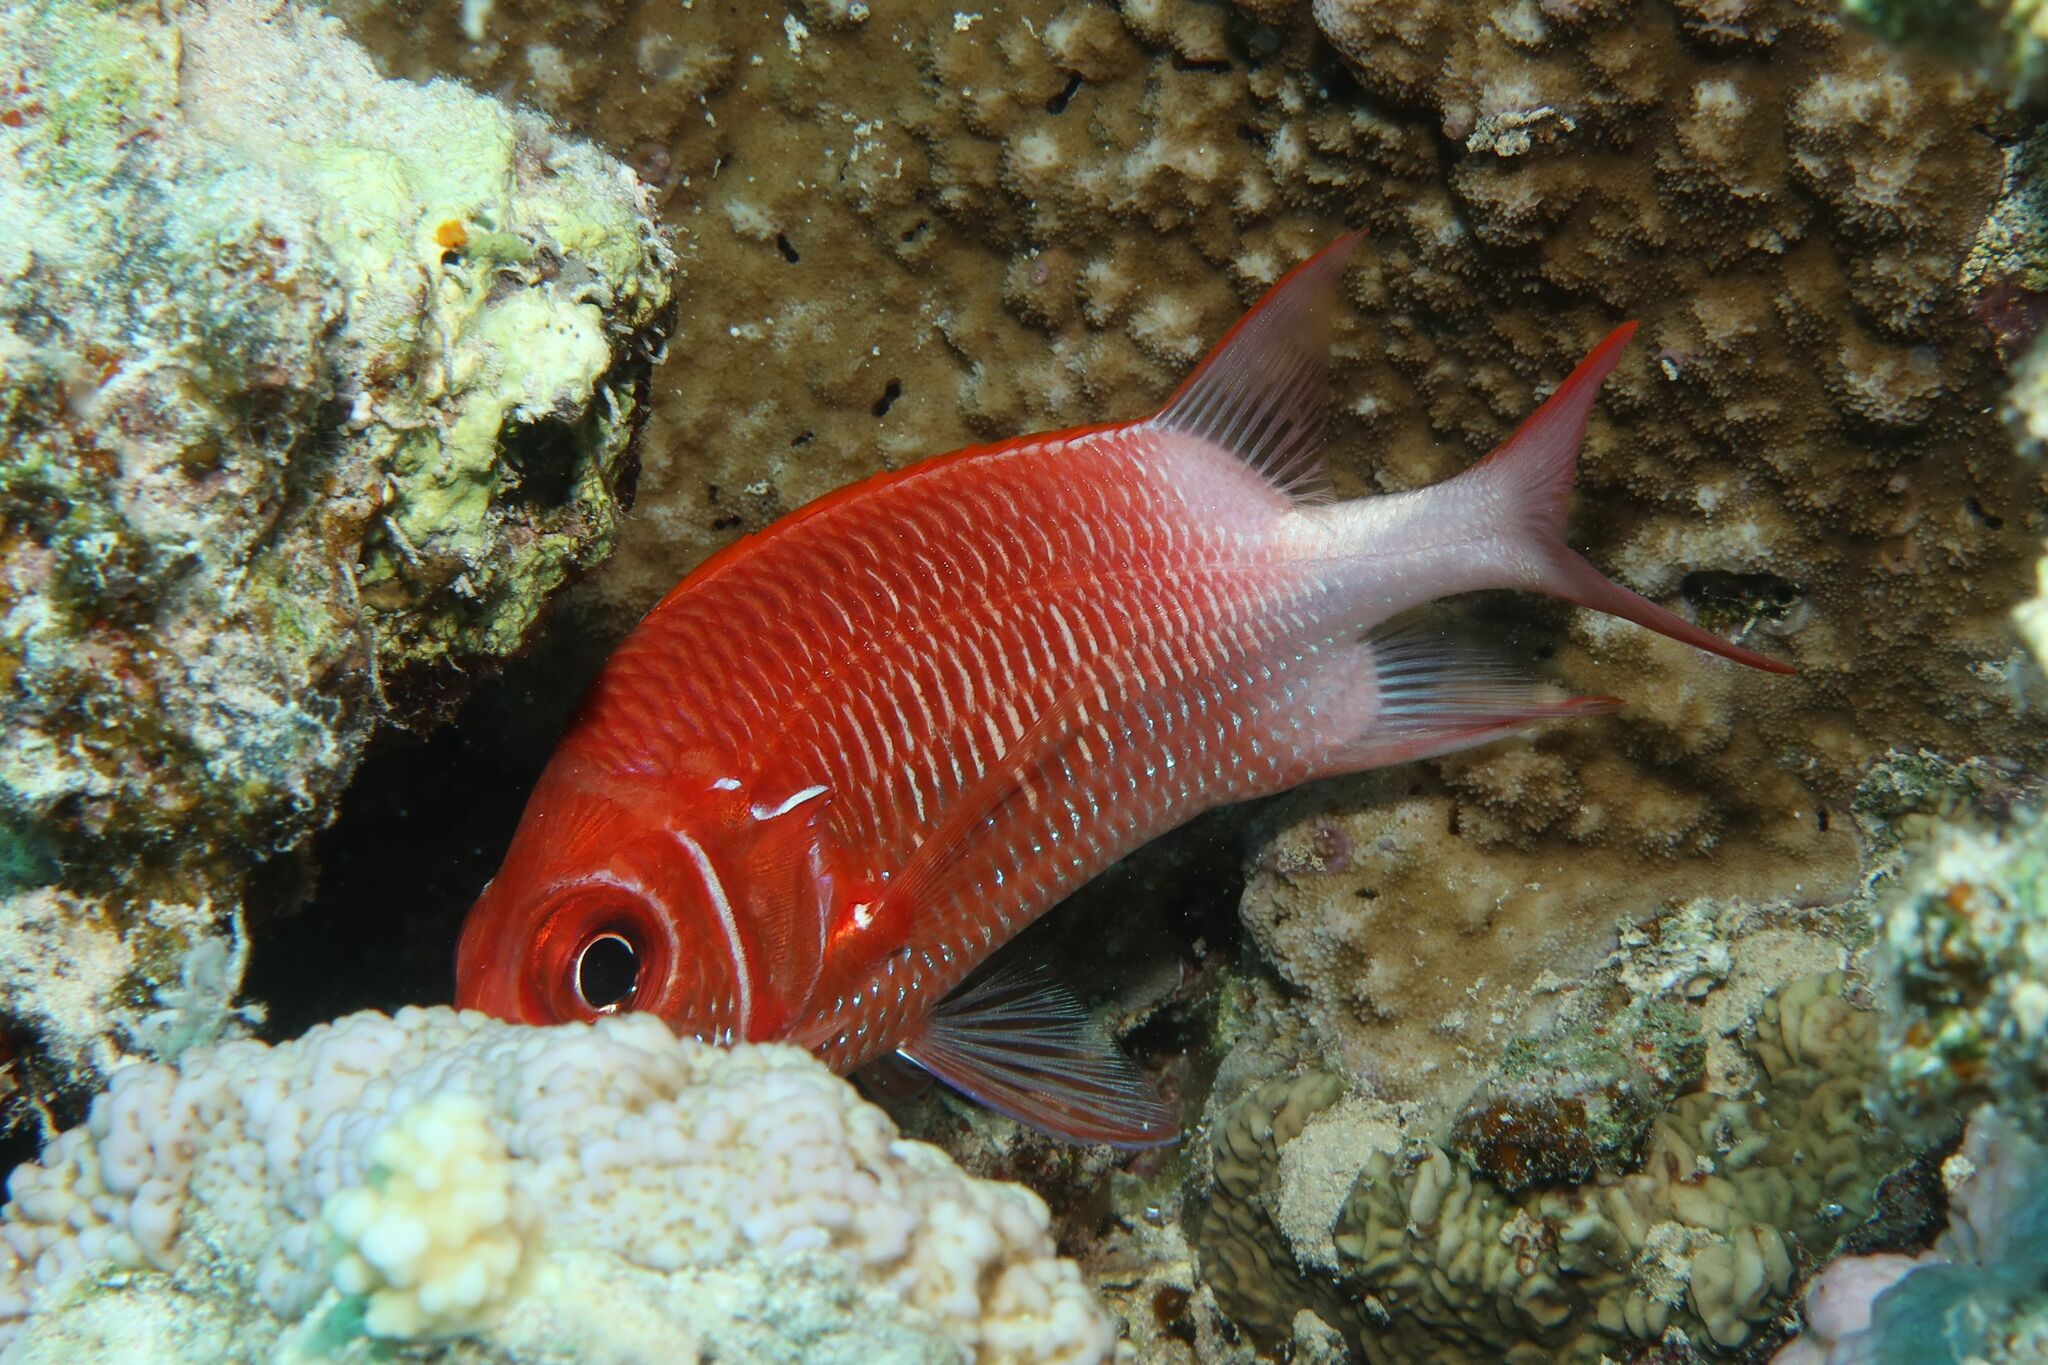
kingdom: Animalia
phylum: Chordata
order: Beryciformes
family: Holocentridae
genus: Sargocentron
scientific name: Sargocentron caudimaculatum
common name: Fanfin soldier
